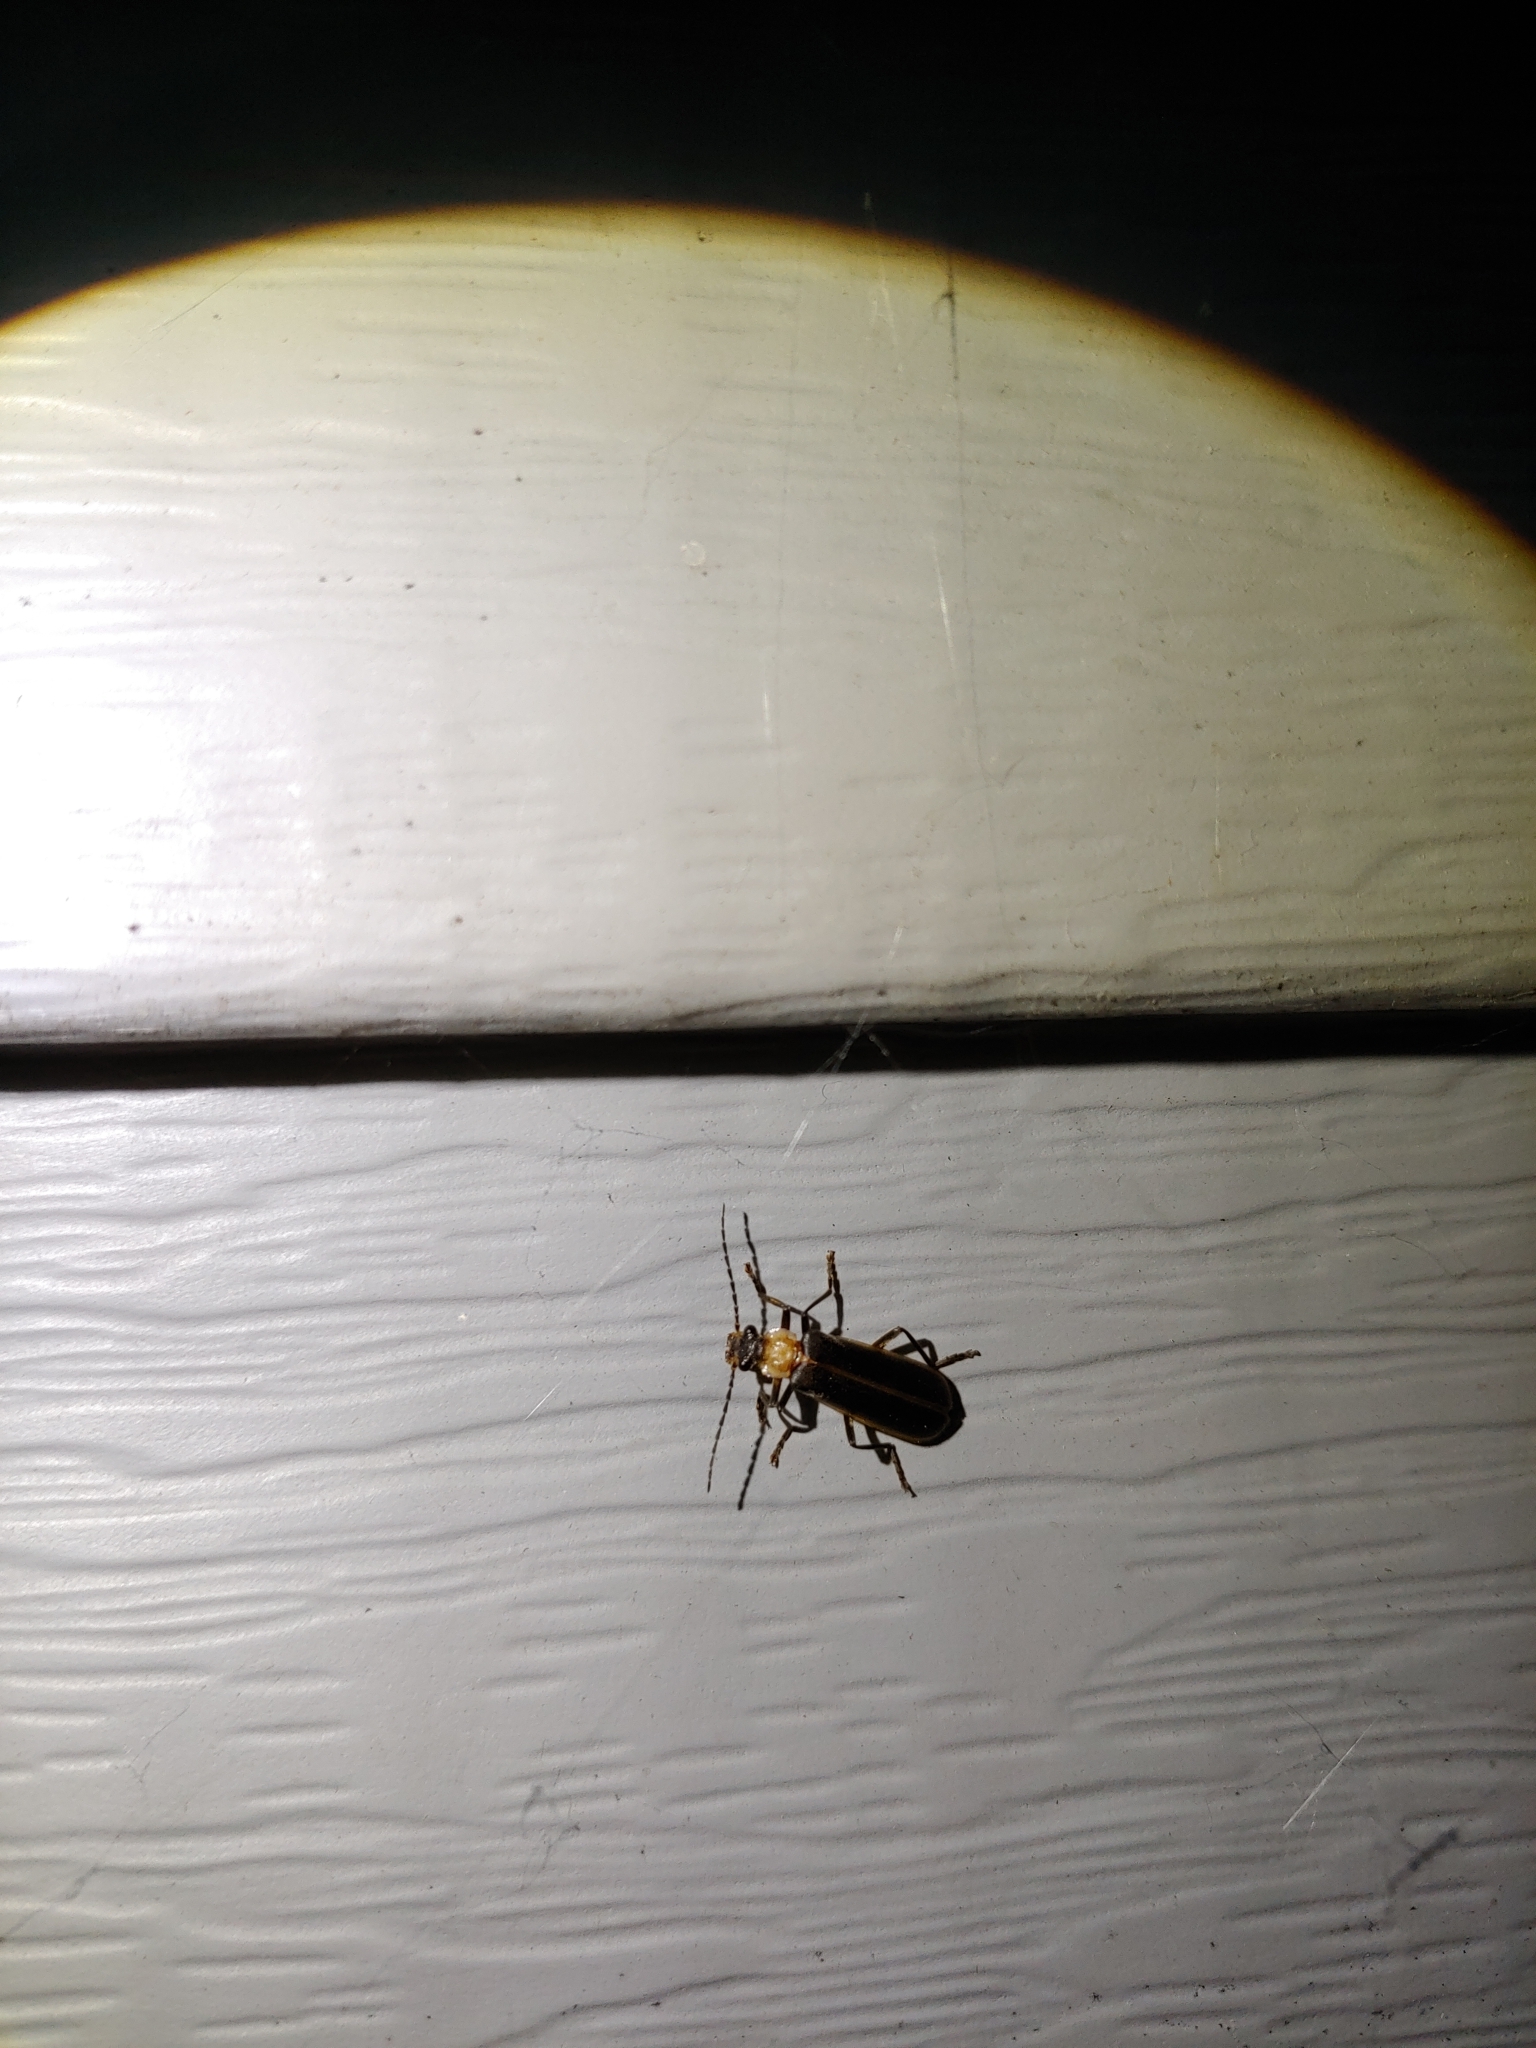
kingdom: Animalia
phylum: Arthropoda
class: Insecta
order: Coleoptera
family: Cantharidae
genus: Podabrus
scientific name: Podabrus flavicollis
